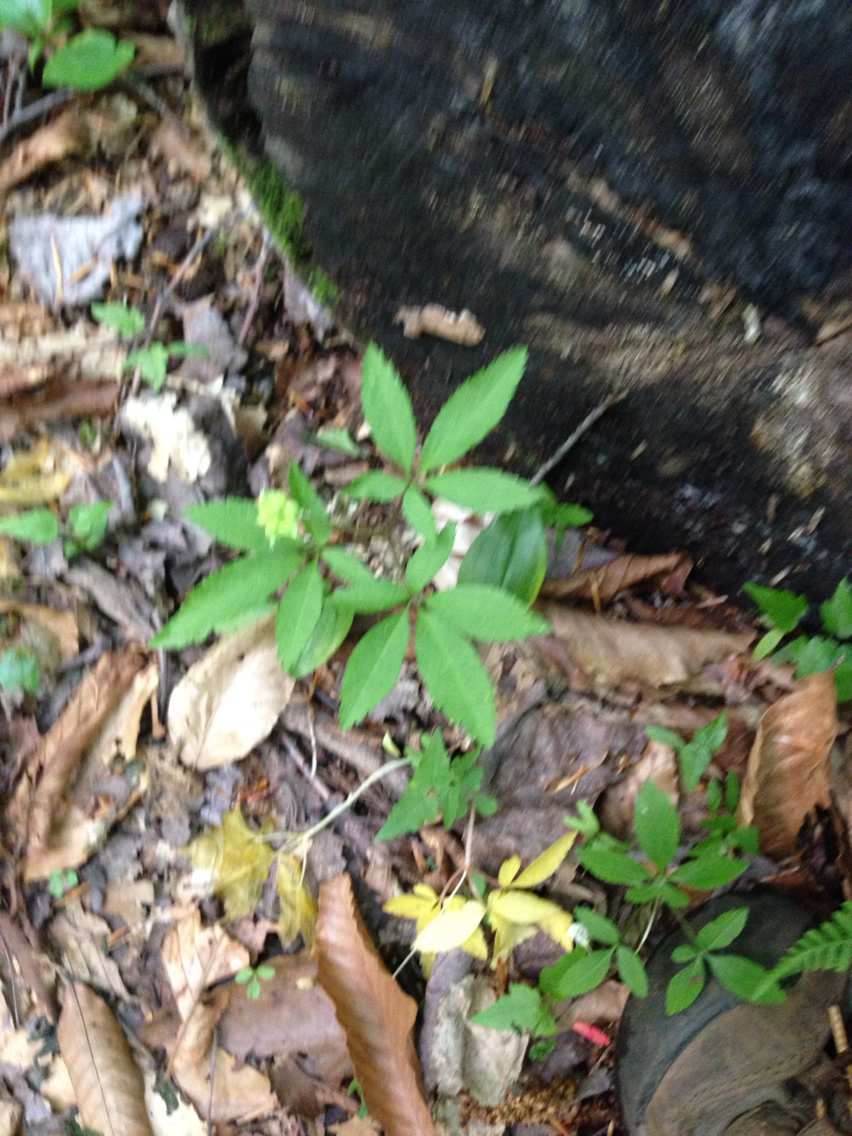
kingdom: Plantae
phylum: Tracheophyta
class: Magnoliopsida
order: Apiales
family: Araliaceae
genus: Panax
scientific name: Panax trifolius
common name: Dwarf ginseng
